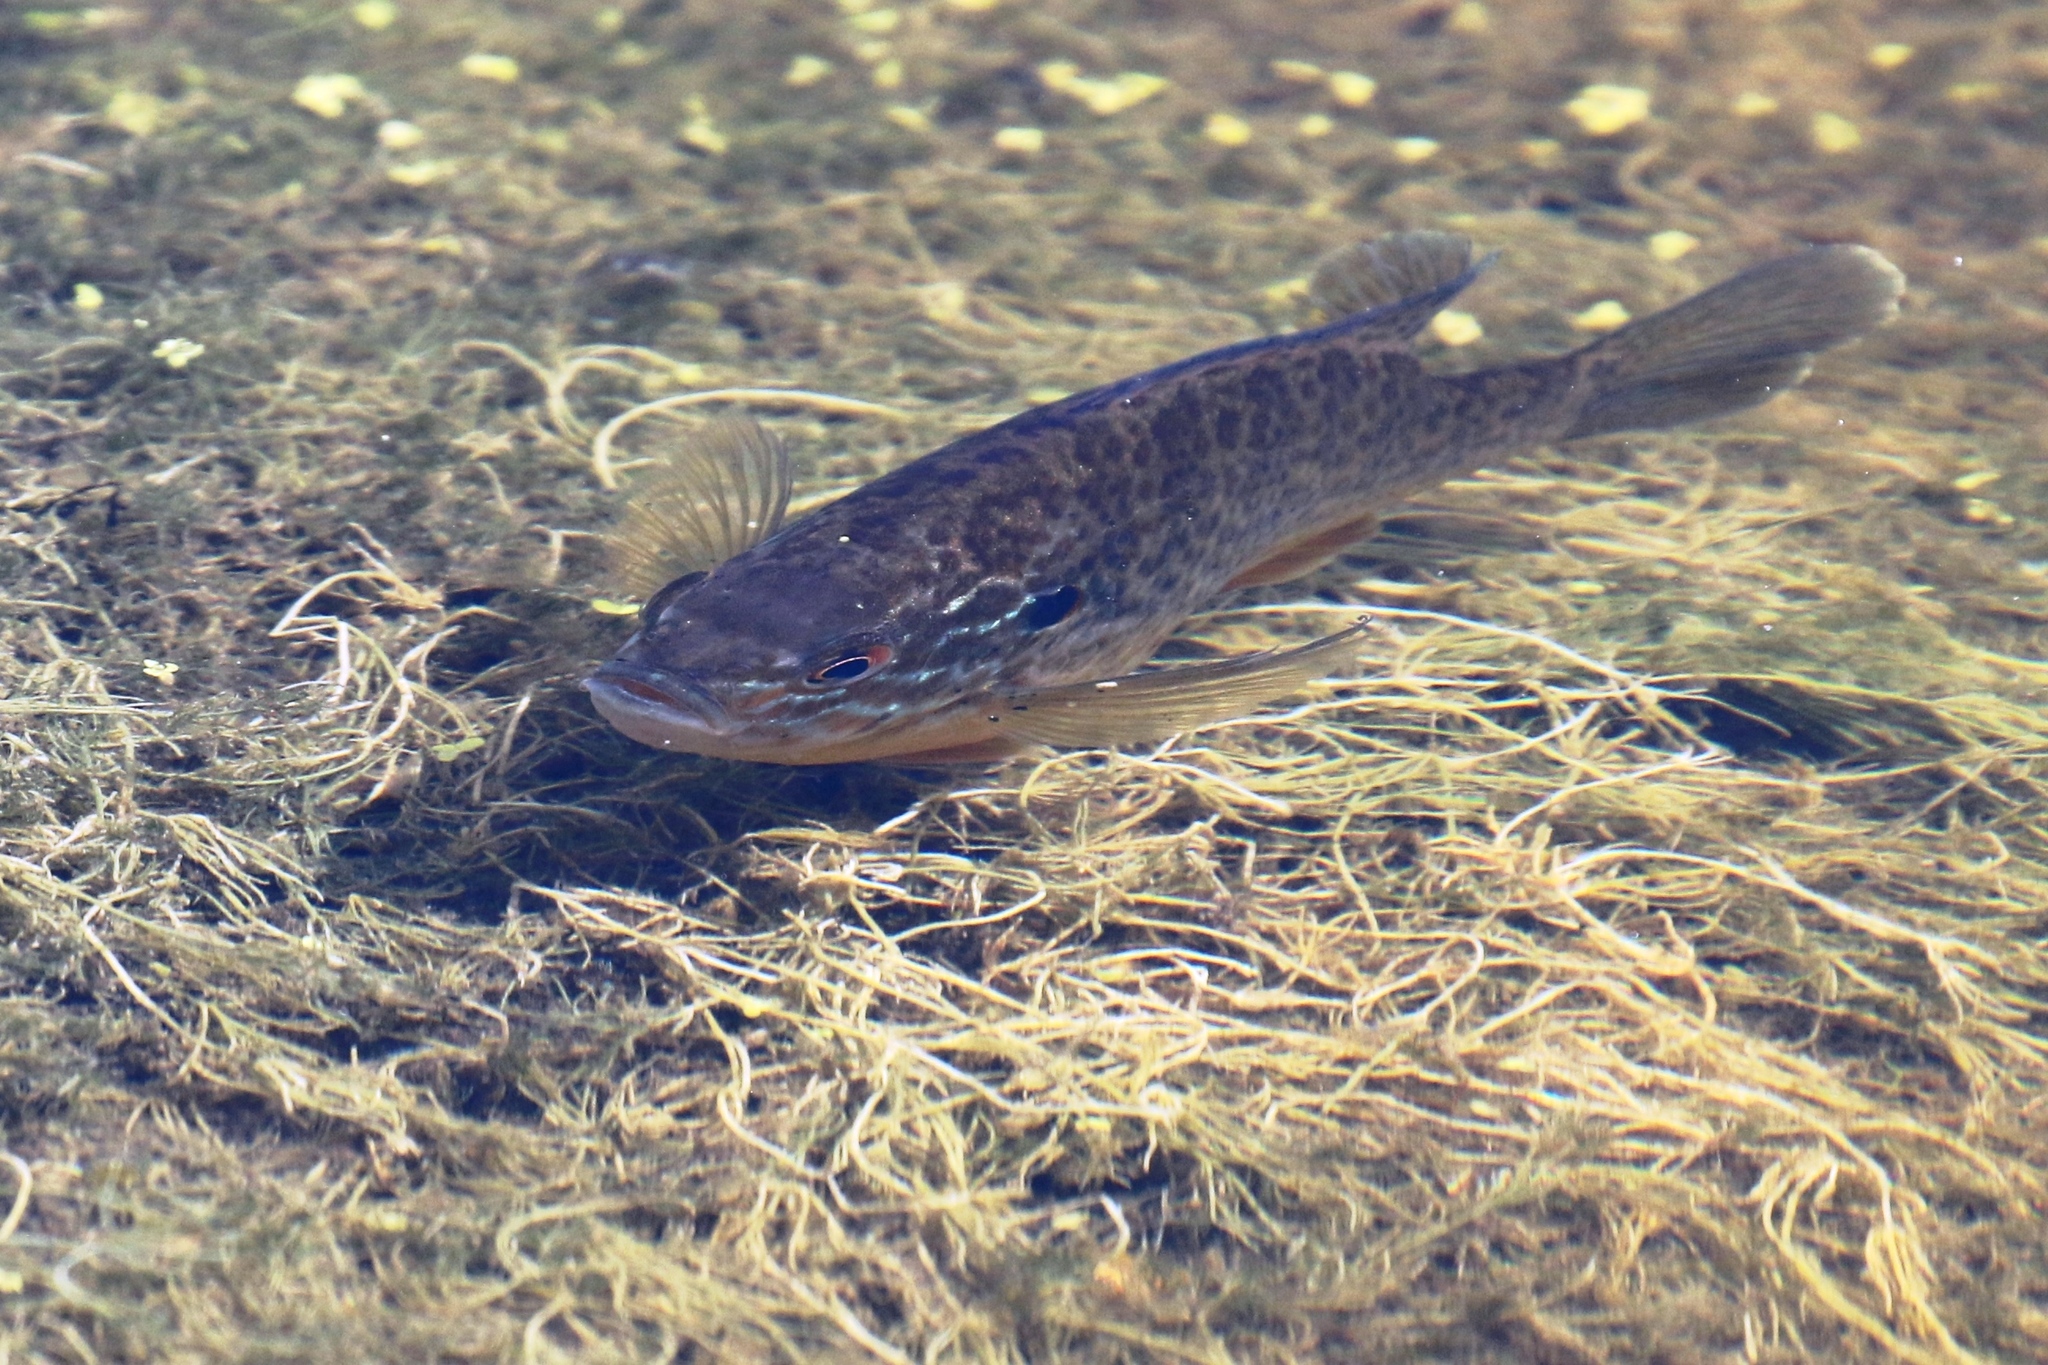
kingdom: Animalia
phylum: Chordata
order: Perciformes
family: Centrarchidae
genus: Lepomis
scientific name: Lepomis gibbosus
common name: Pumpkinseed
